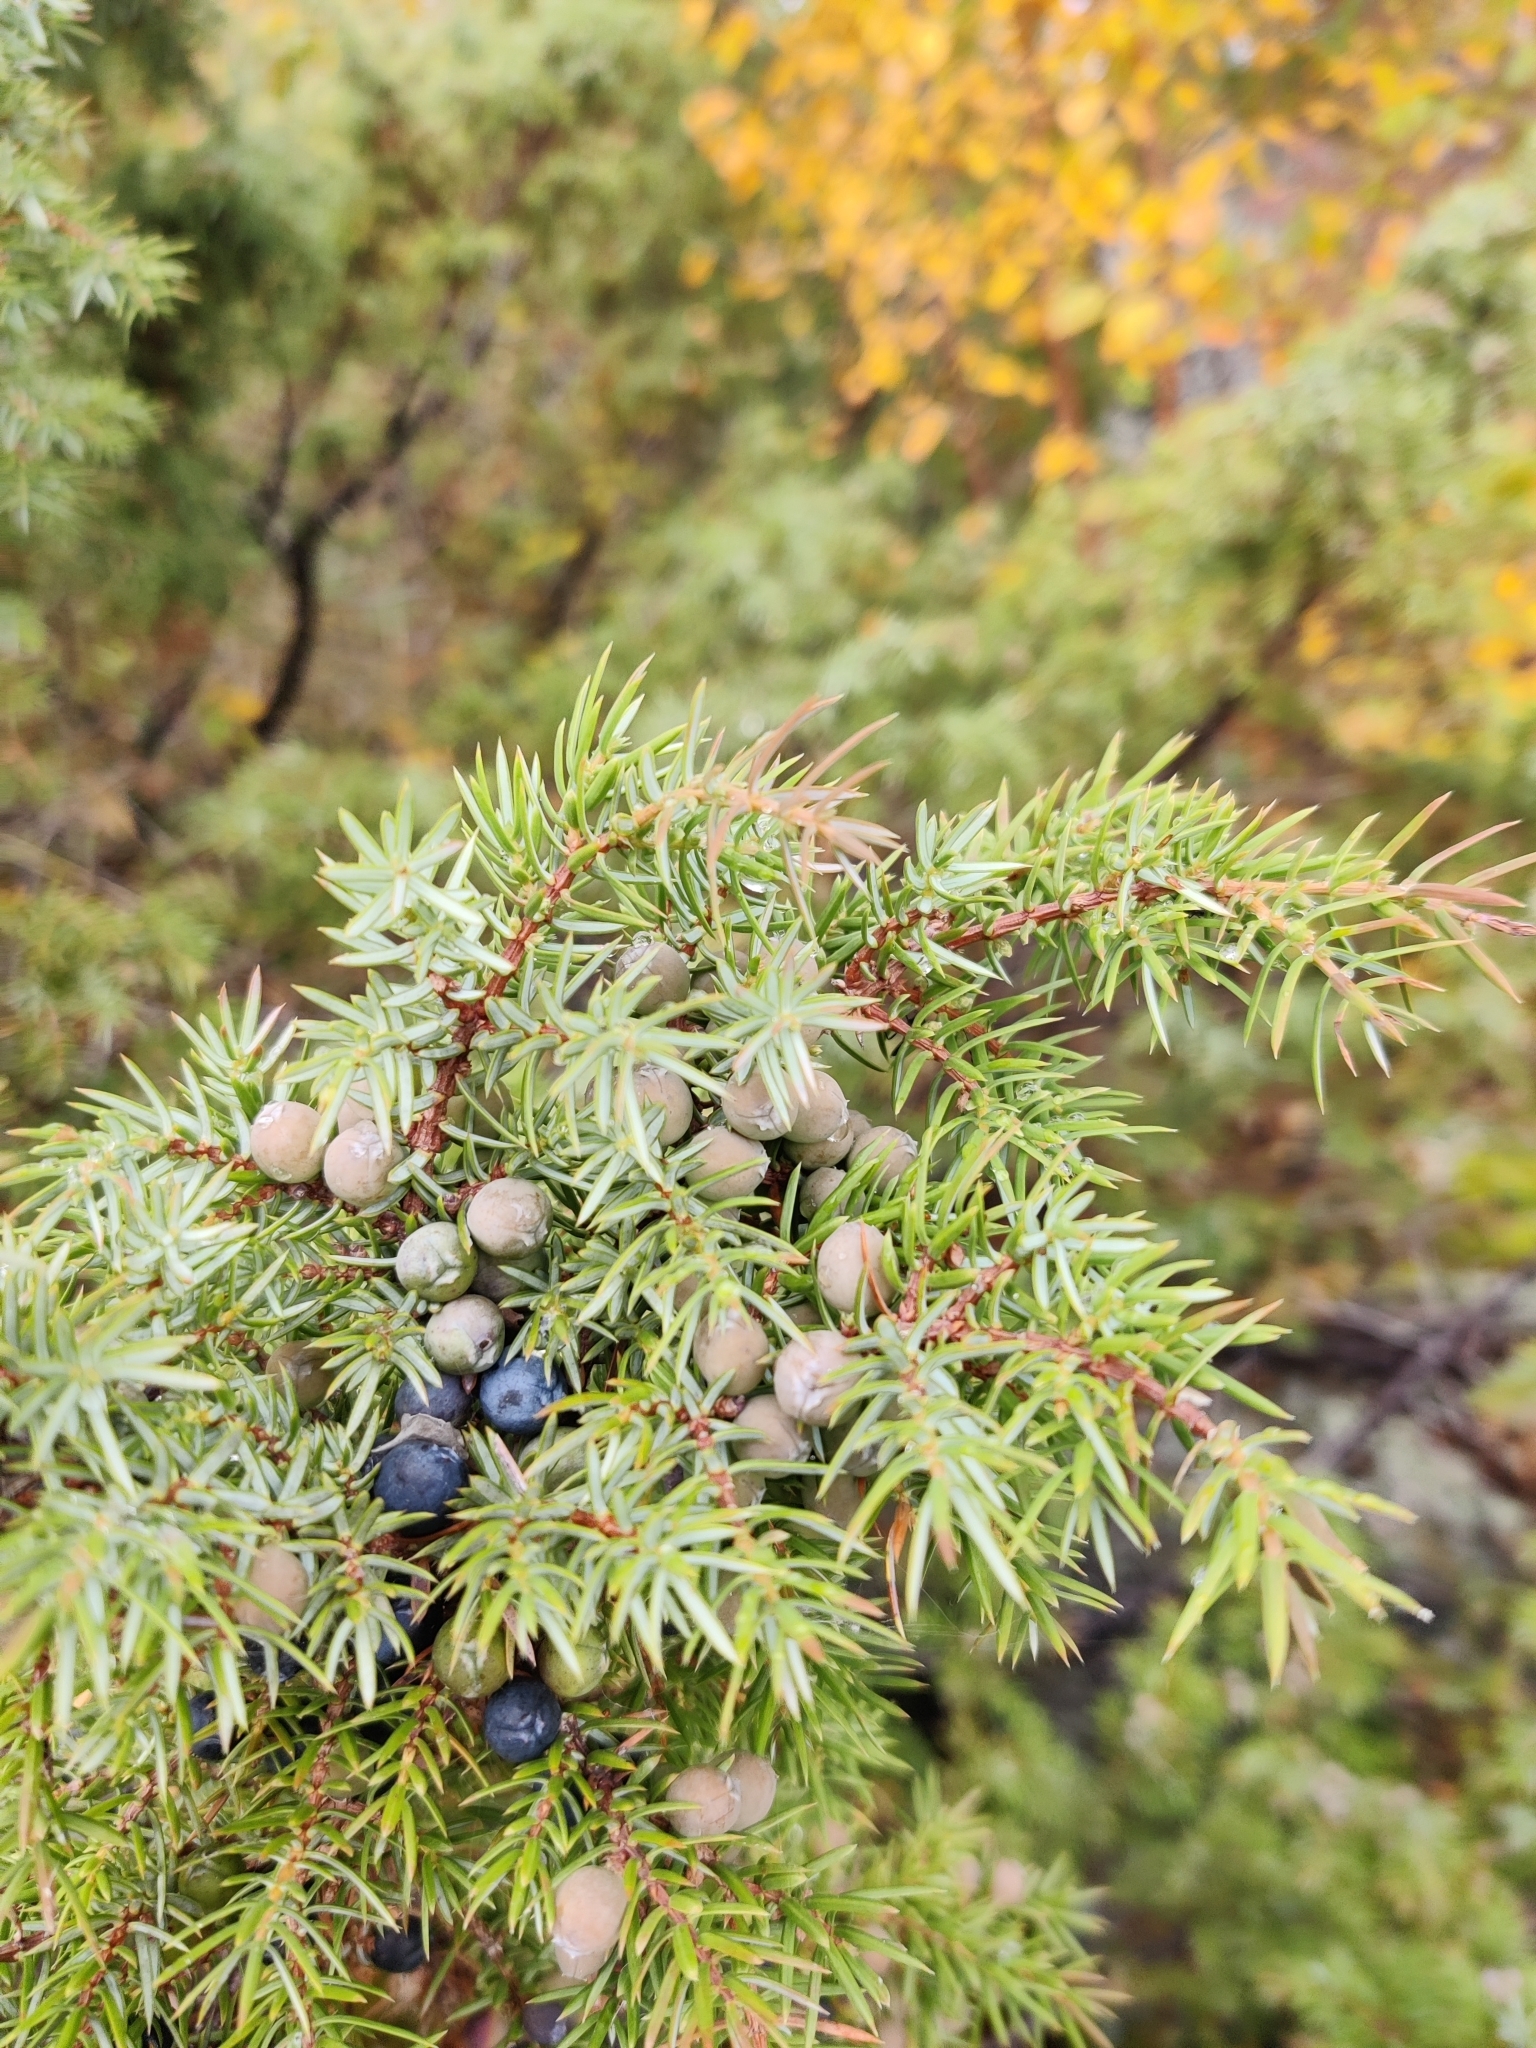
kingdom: Plantae
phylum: Tracheophyta
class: Pinopsida
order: Pinales
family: Cupressaceae
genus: Juniperus
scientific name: Juniperus communis
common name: Common juniper
